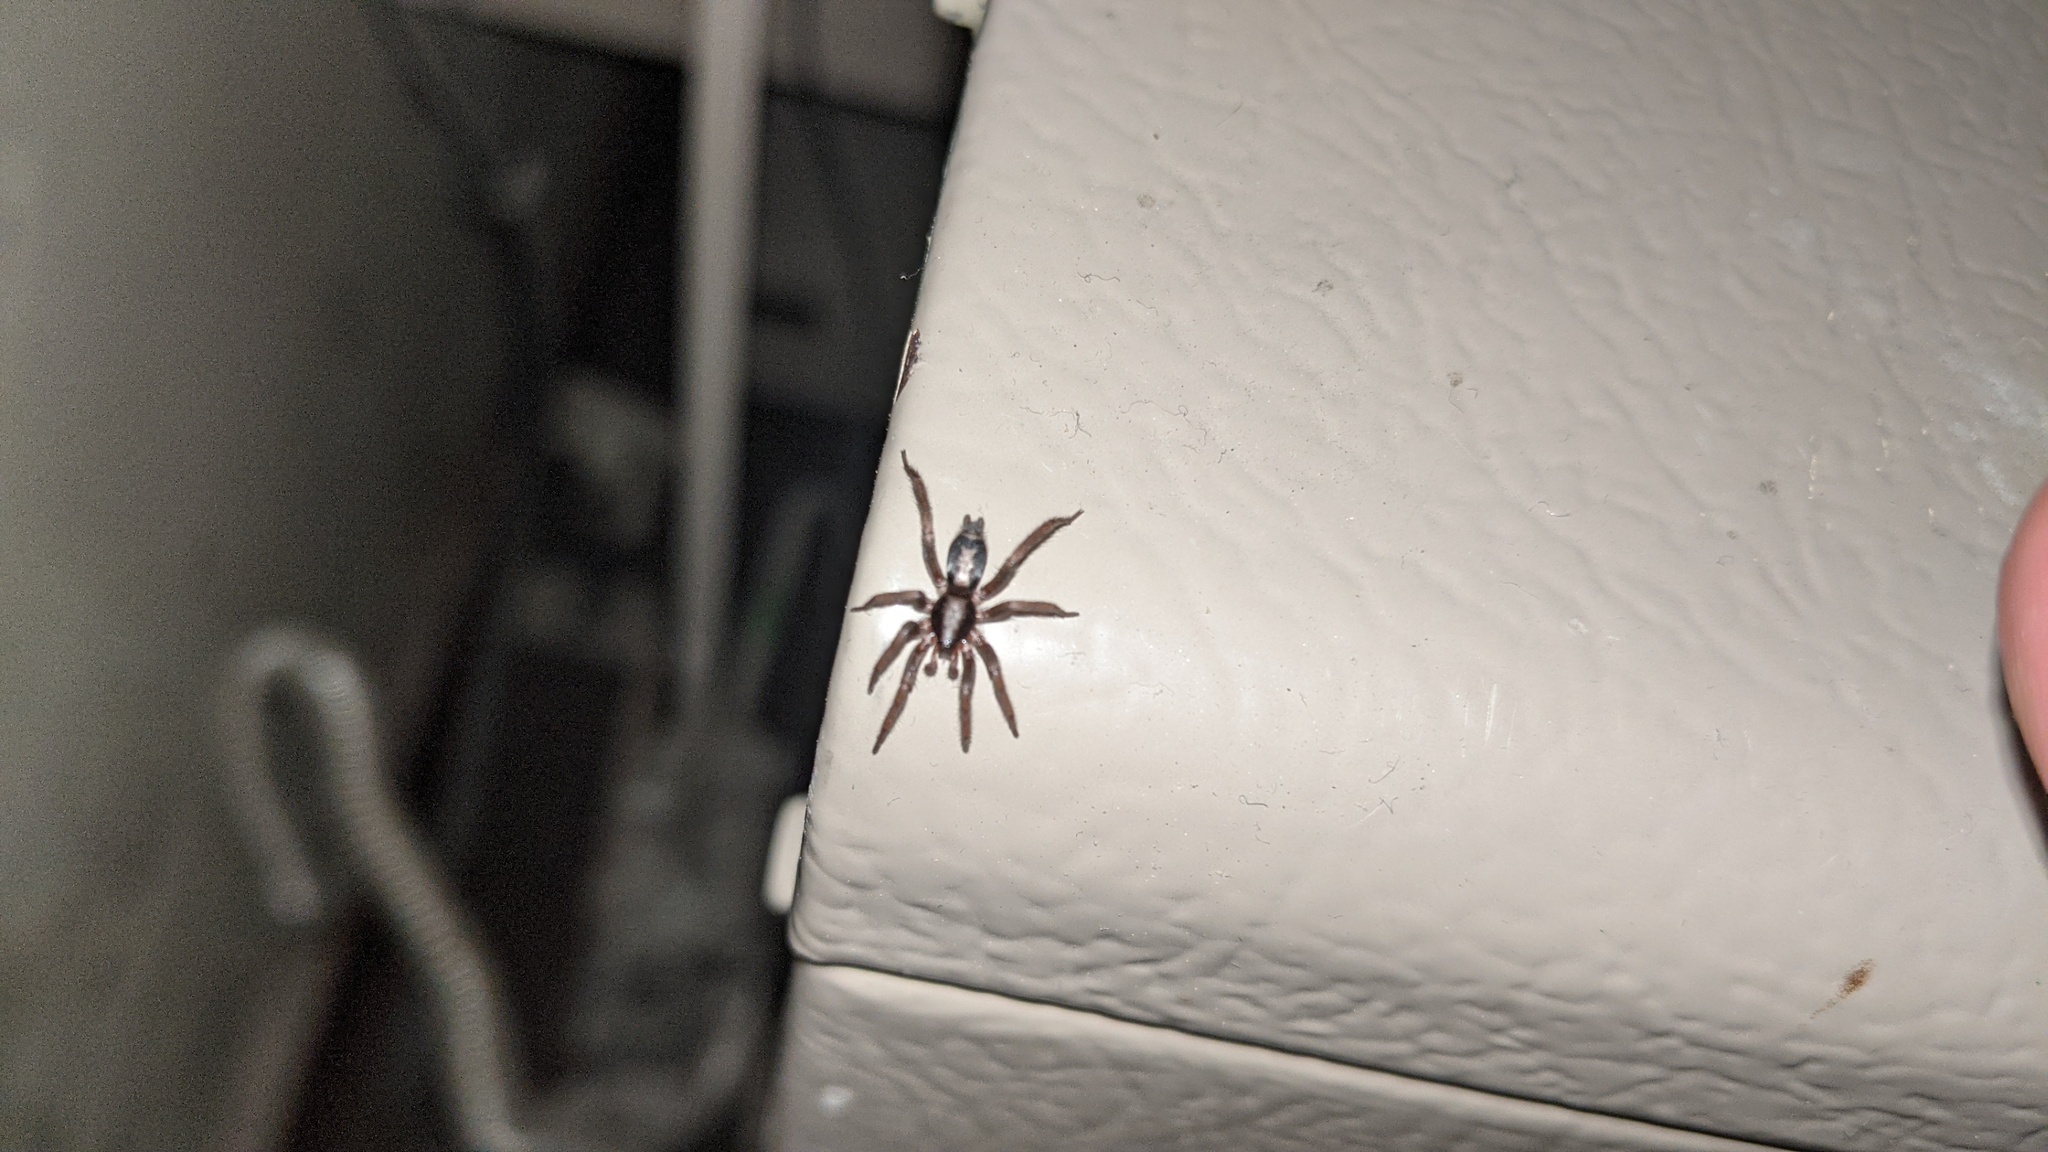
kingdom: Animalia
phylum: Arthropoda
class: Arachnida
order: Araneae
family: Gnaphosidae
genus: Herpyllus
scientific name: Herpyllus ecclesiasticus
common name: Eastern parson spider
